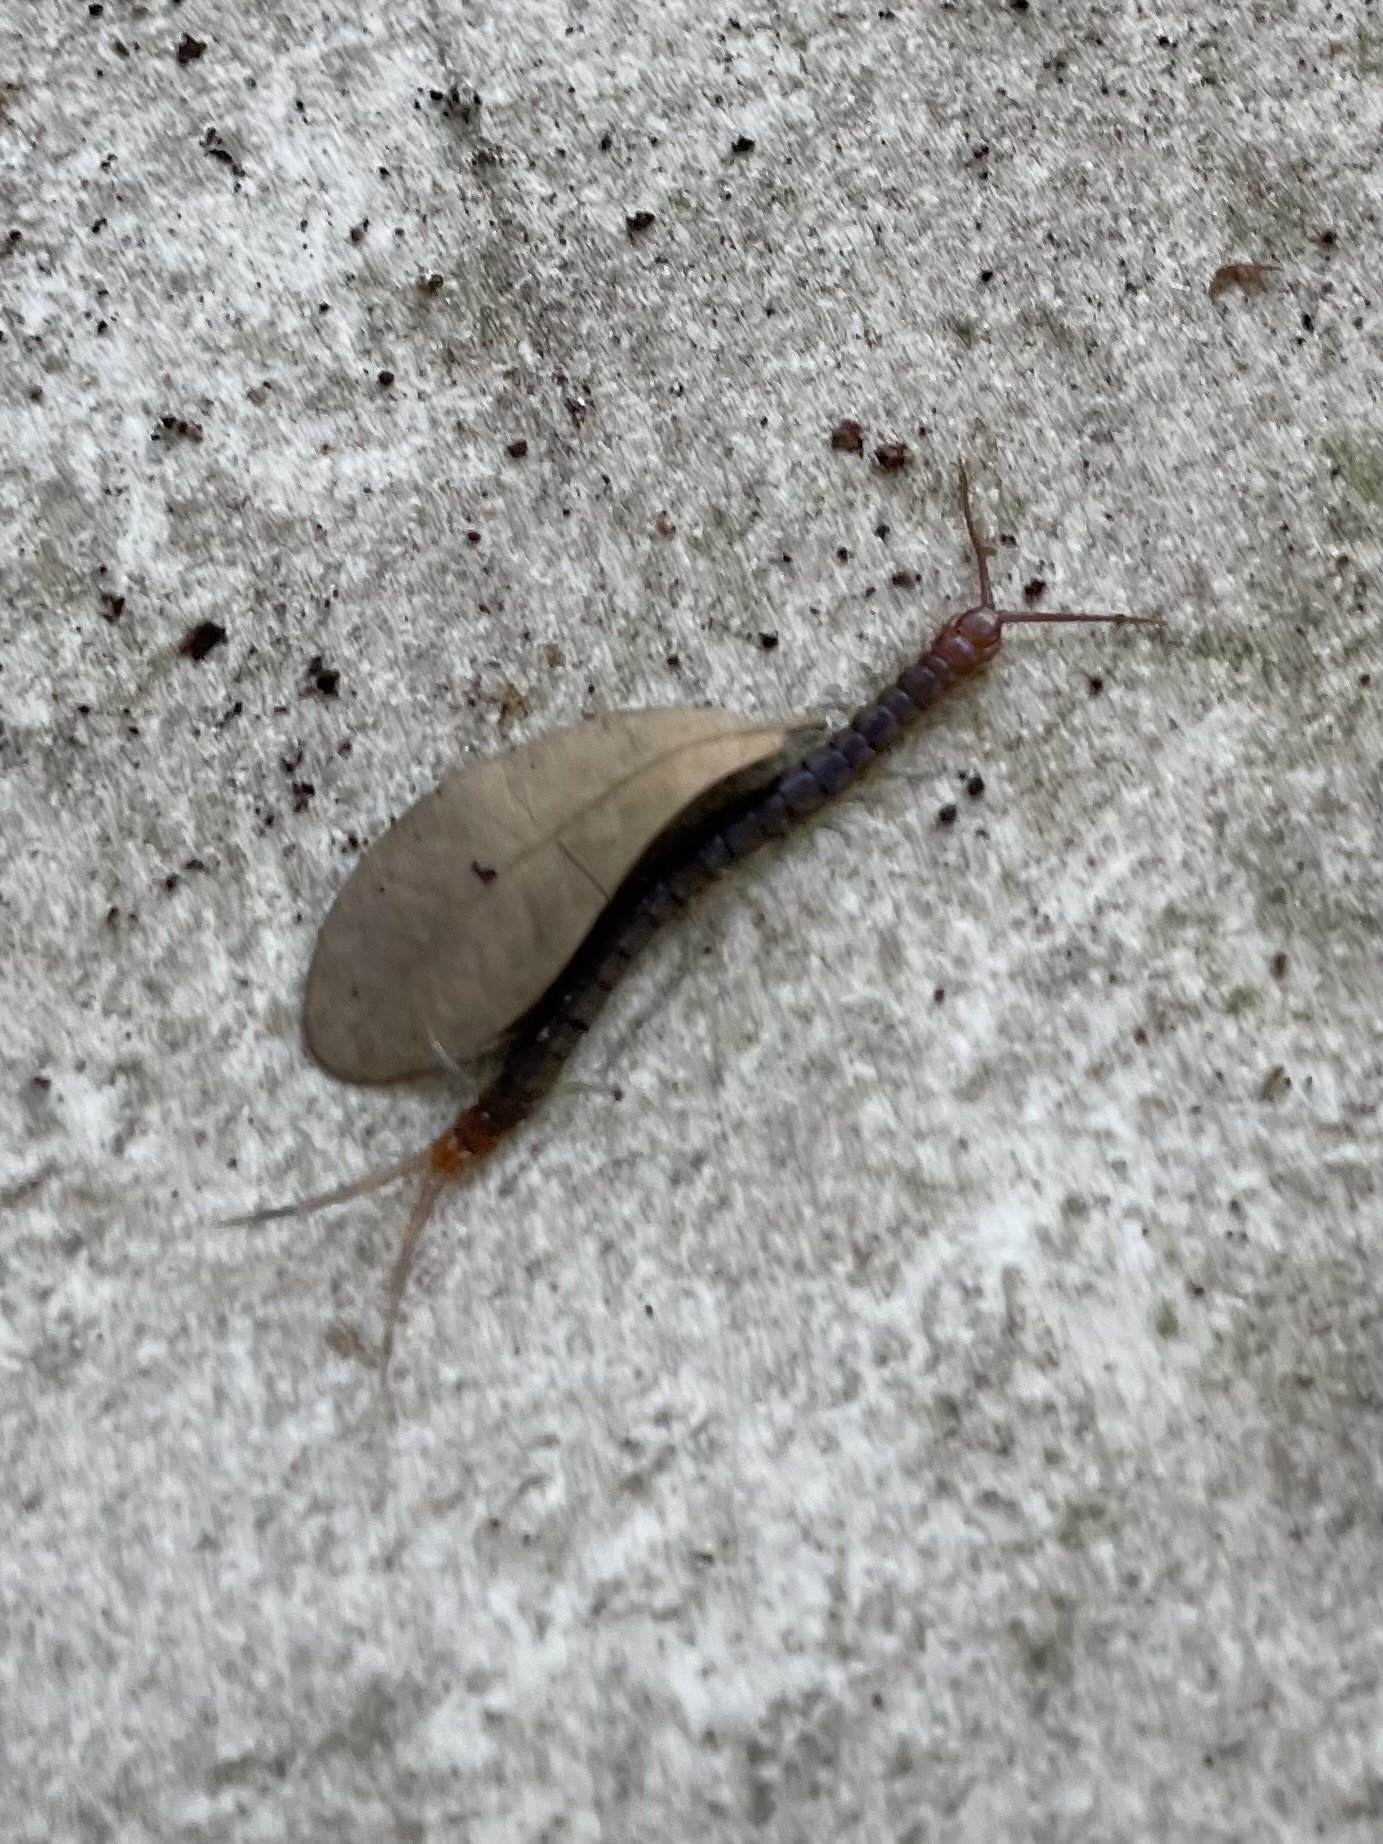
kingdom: Animalia
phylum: Arthropoda
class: Chilopoda
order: Scolopendromorpha
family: Scolopendridae
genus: Rhysida
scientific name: Rhysida longipes
